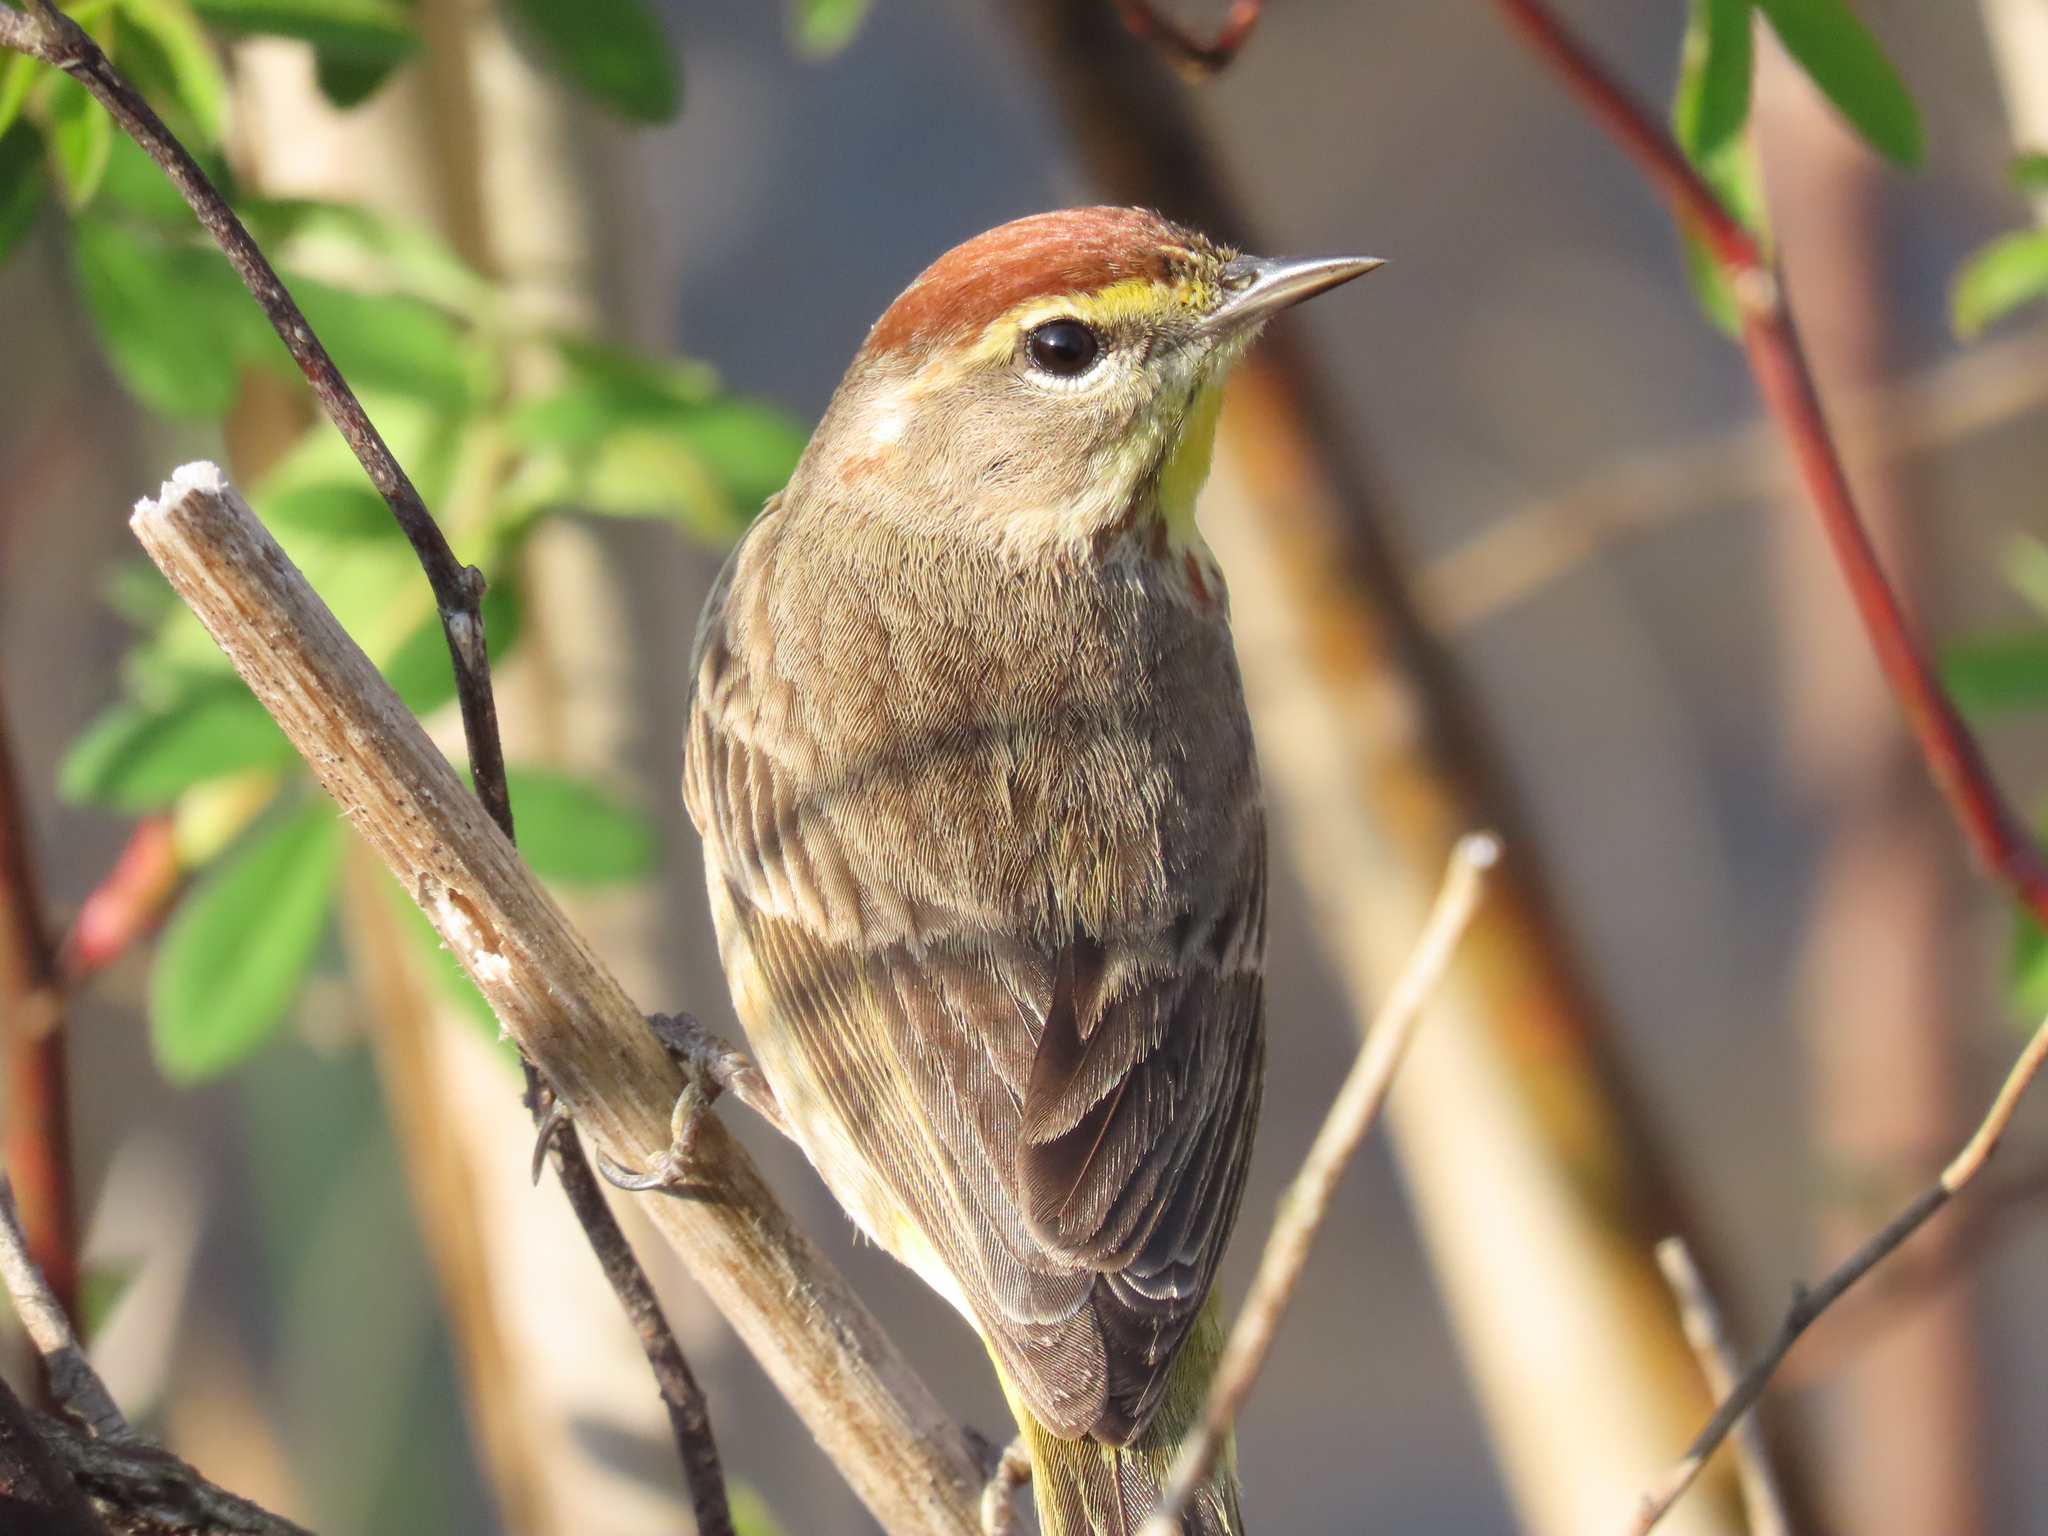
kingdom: Animalia
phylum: Chordata
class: Aves
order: Passeriformes
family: Parulidae
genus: Setophaga
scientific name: Setophaga palmarum
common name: Palm warbler
